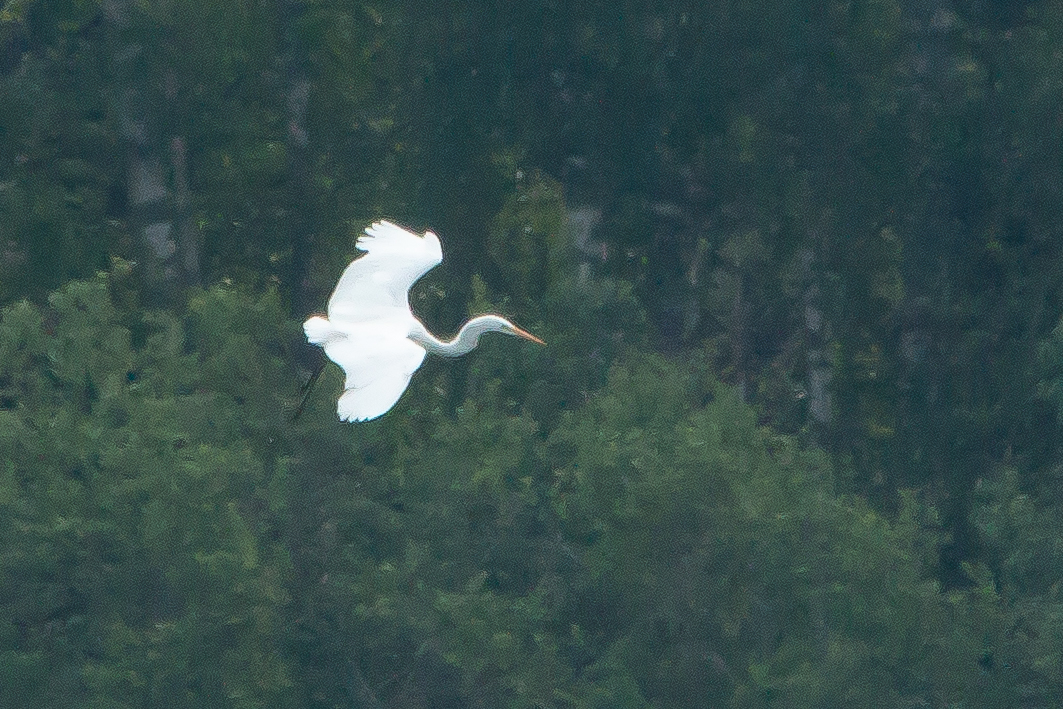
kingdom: Animalia
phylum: Chordata
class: Aves
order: Pelecaniformes
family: Ardeidae
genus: Ardea
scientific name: Ardea alba
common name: Great egret
